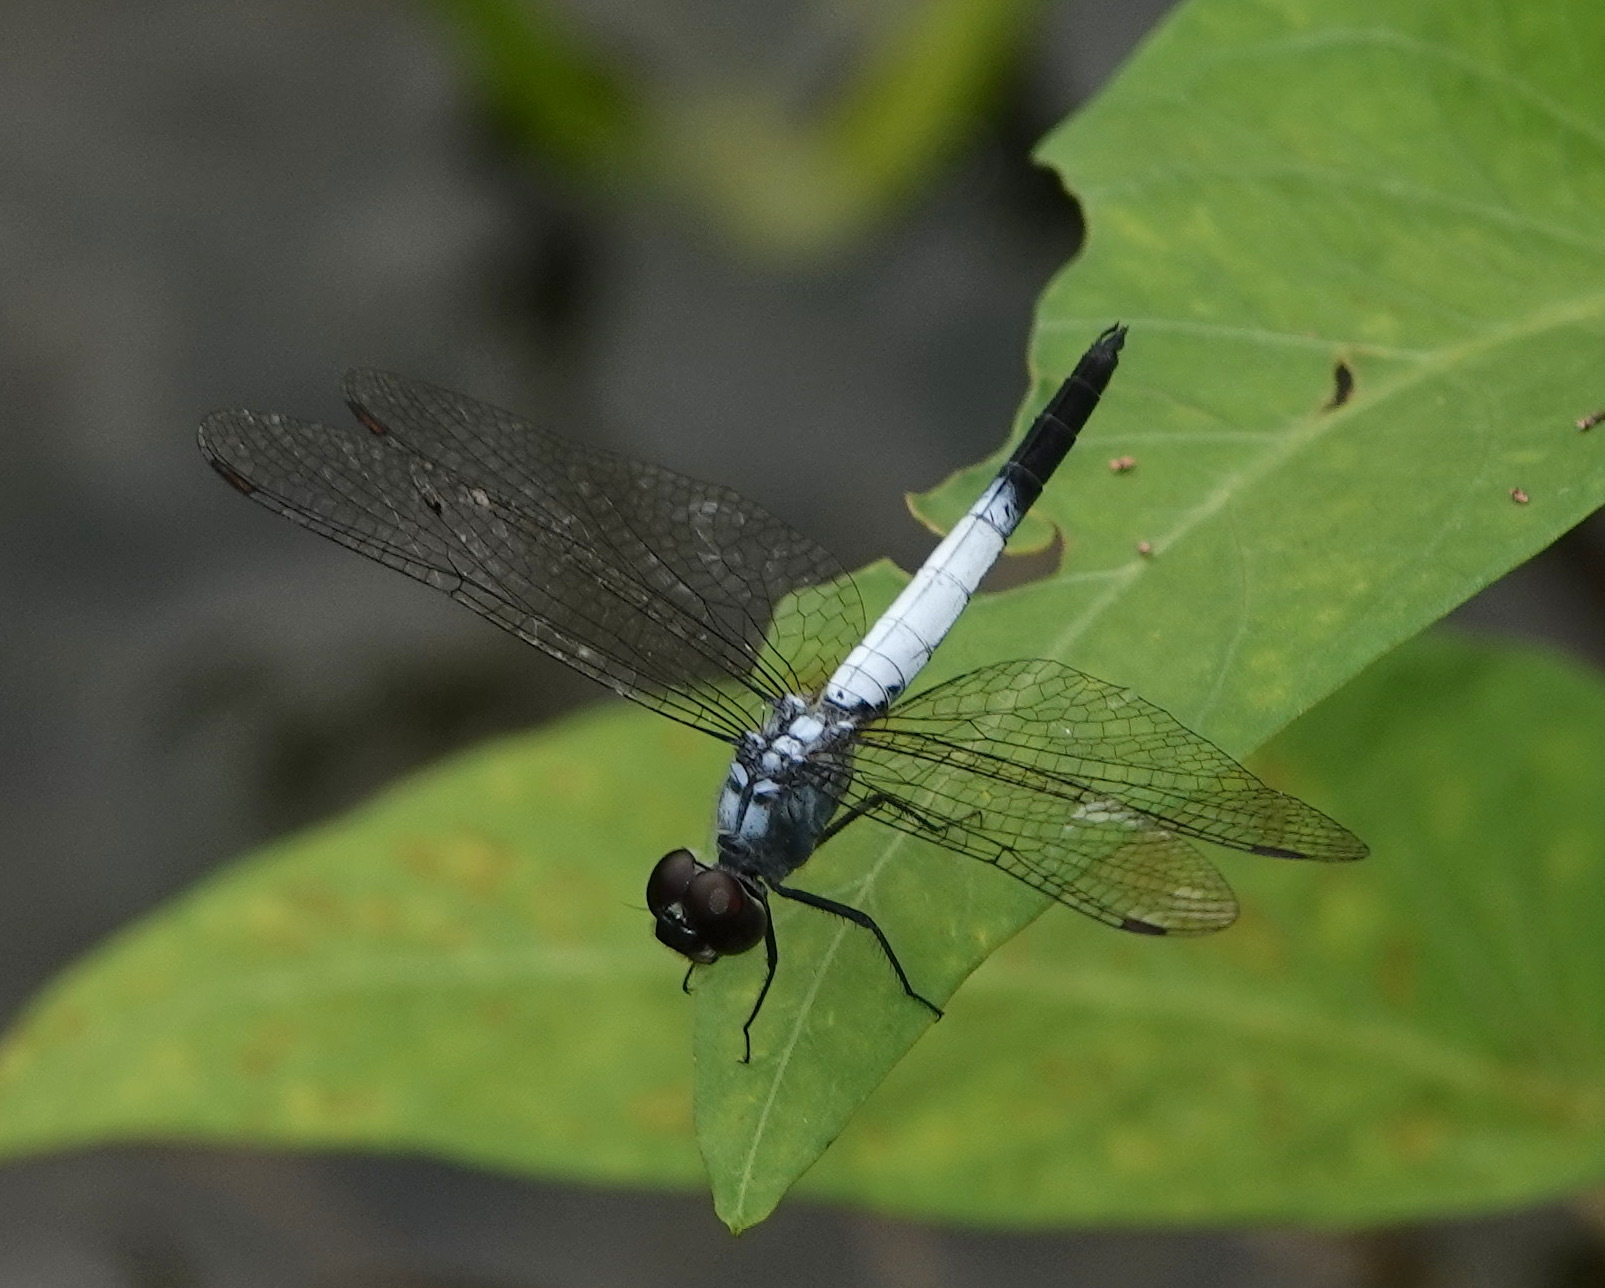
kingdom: Animalia
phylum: Arthropoda
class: Insecta
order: Odonata
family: Libellulidae
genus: Brachydiplax
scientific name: Brachydiplax farinosa
